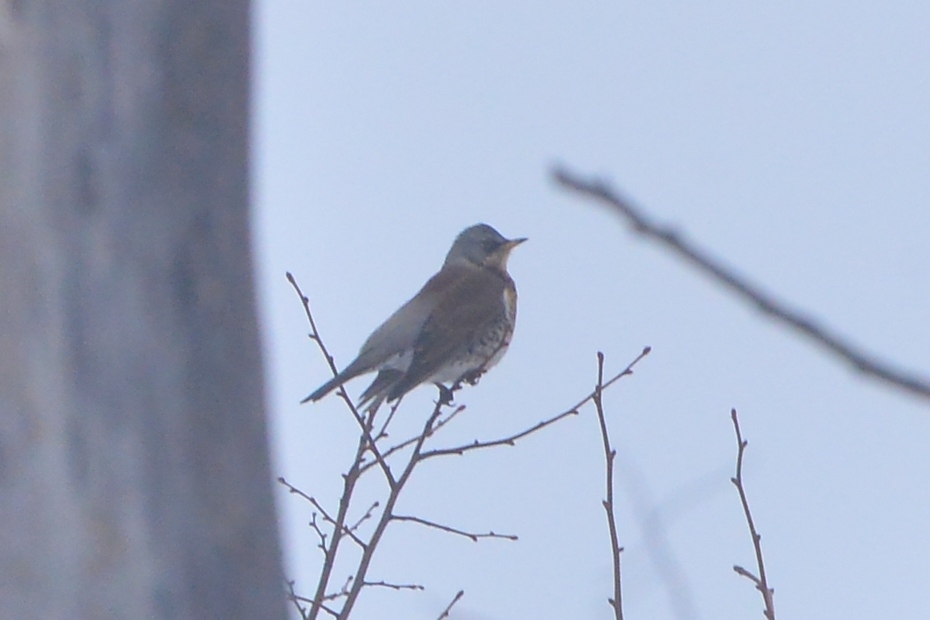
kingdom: Animalia
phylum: Chordata
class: Aves
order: Passeriformes
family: Turdidae
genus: Turdus
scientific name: Turdus pilaris
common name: Fieldfare
